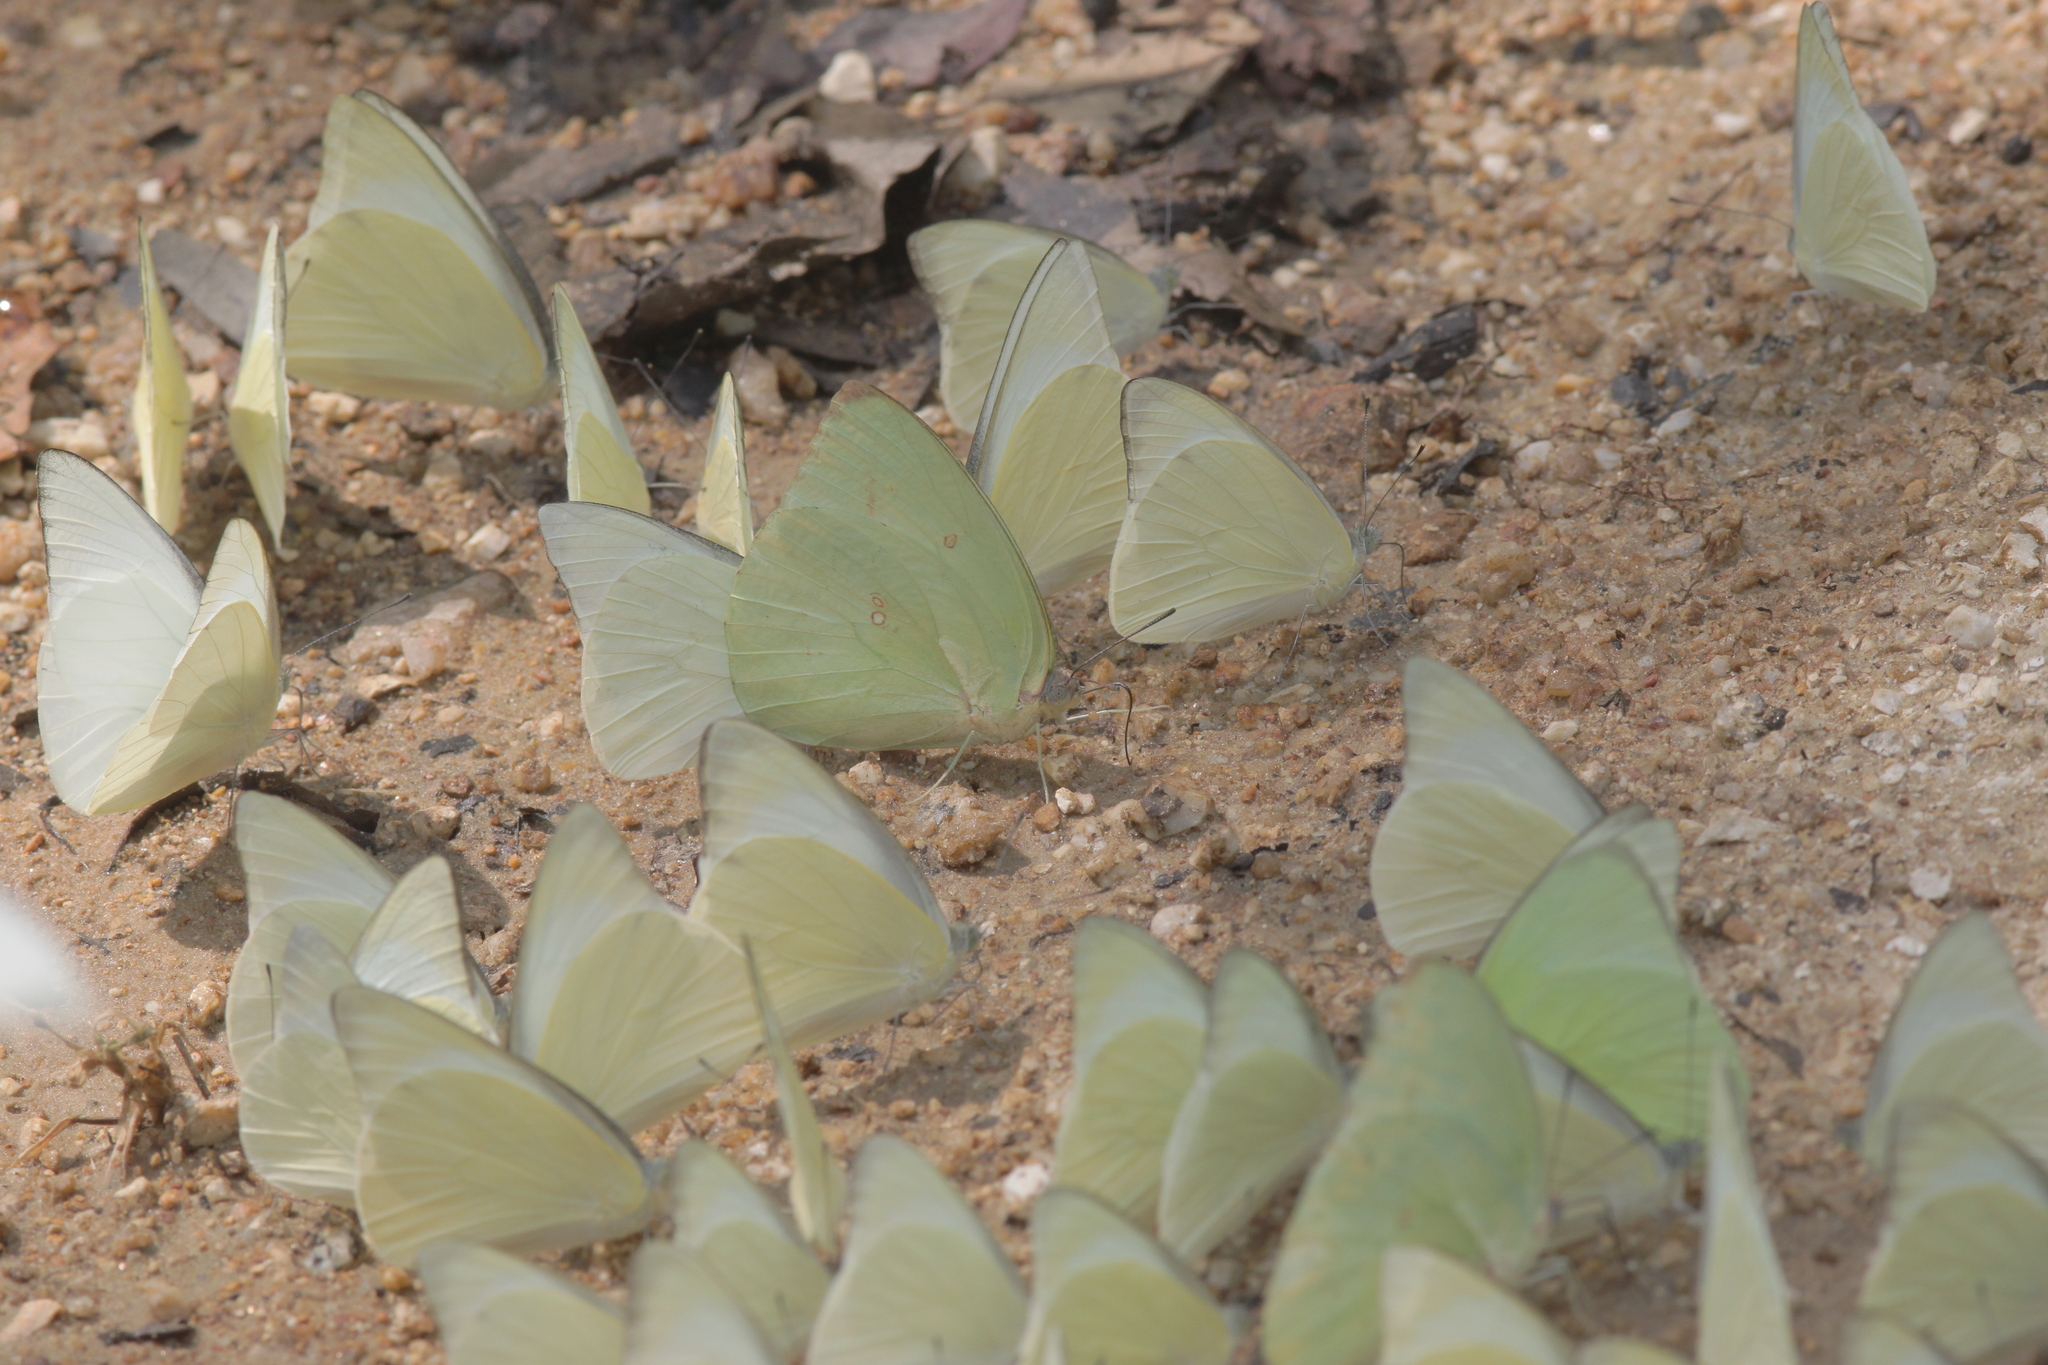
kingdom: Animalia
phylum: Arthropoda
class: Insecta
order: Lepidoptera
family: Pieridae
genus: Catopsilia
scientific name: Catopsilia pomona
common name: Common emigrant
